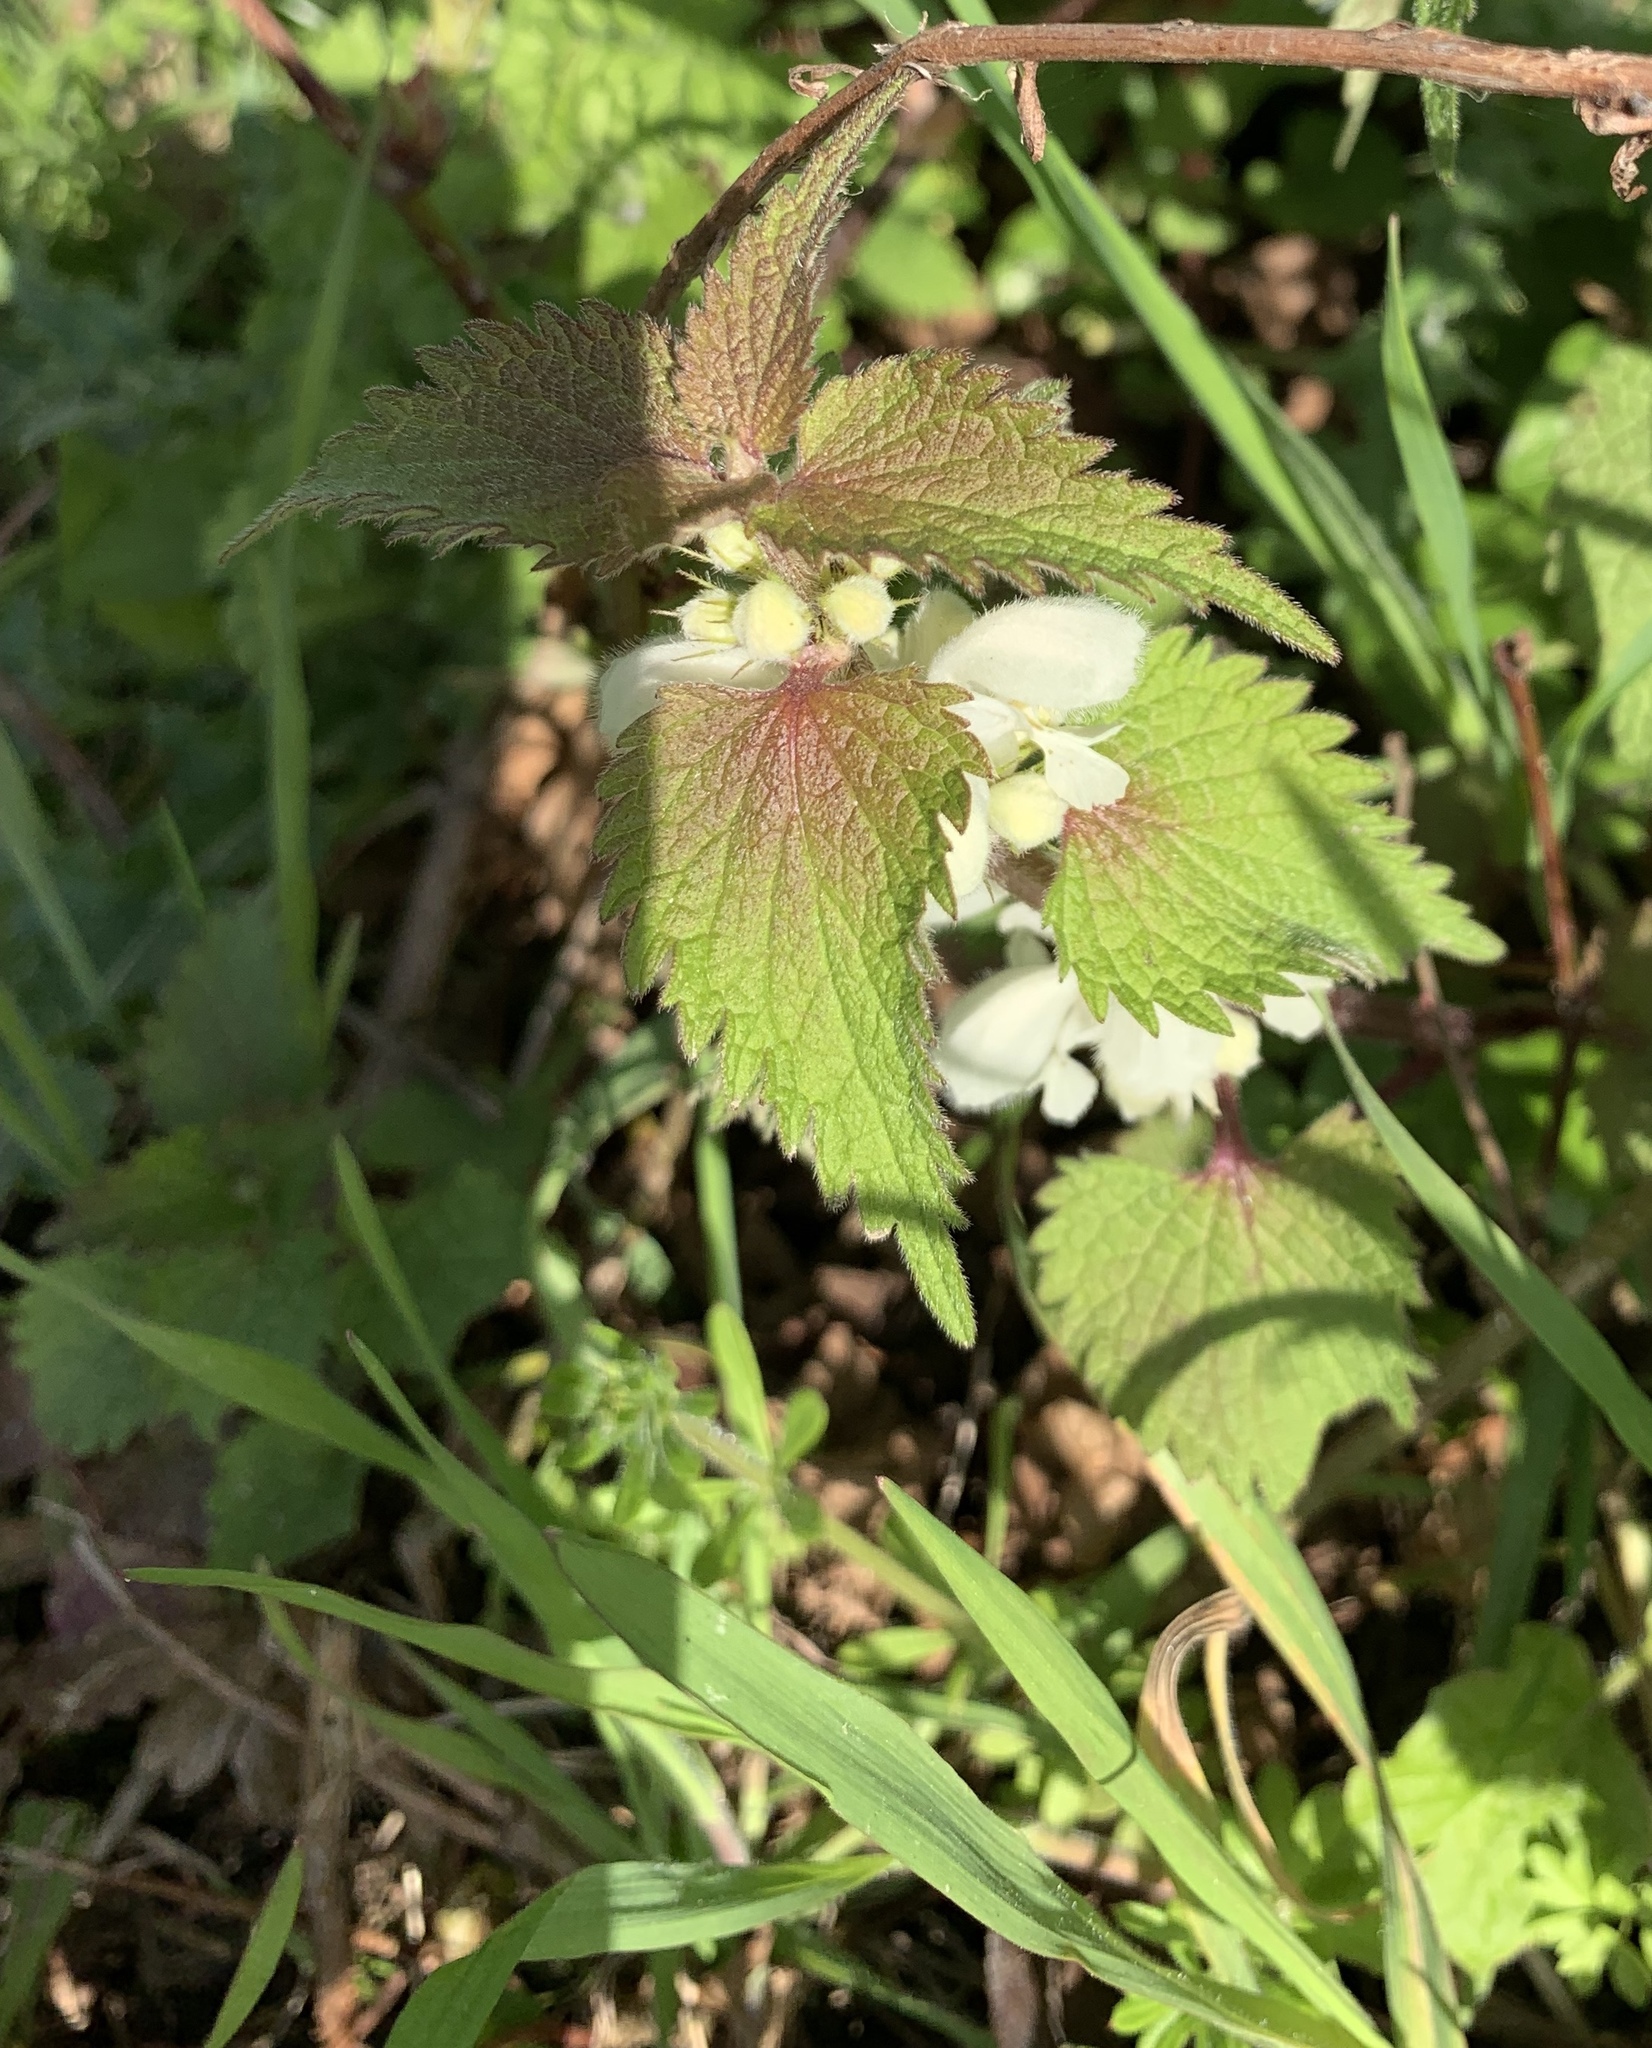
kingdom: Plantae
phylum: Tracheophyta
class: Magnoliopsida
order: Lamiales
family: Lamiaceae
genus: Lamium
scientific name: Lamium album
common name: White dead-nettle
